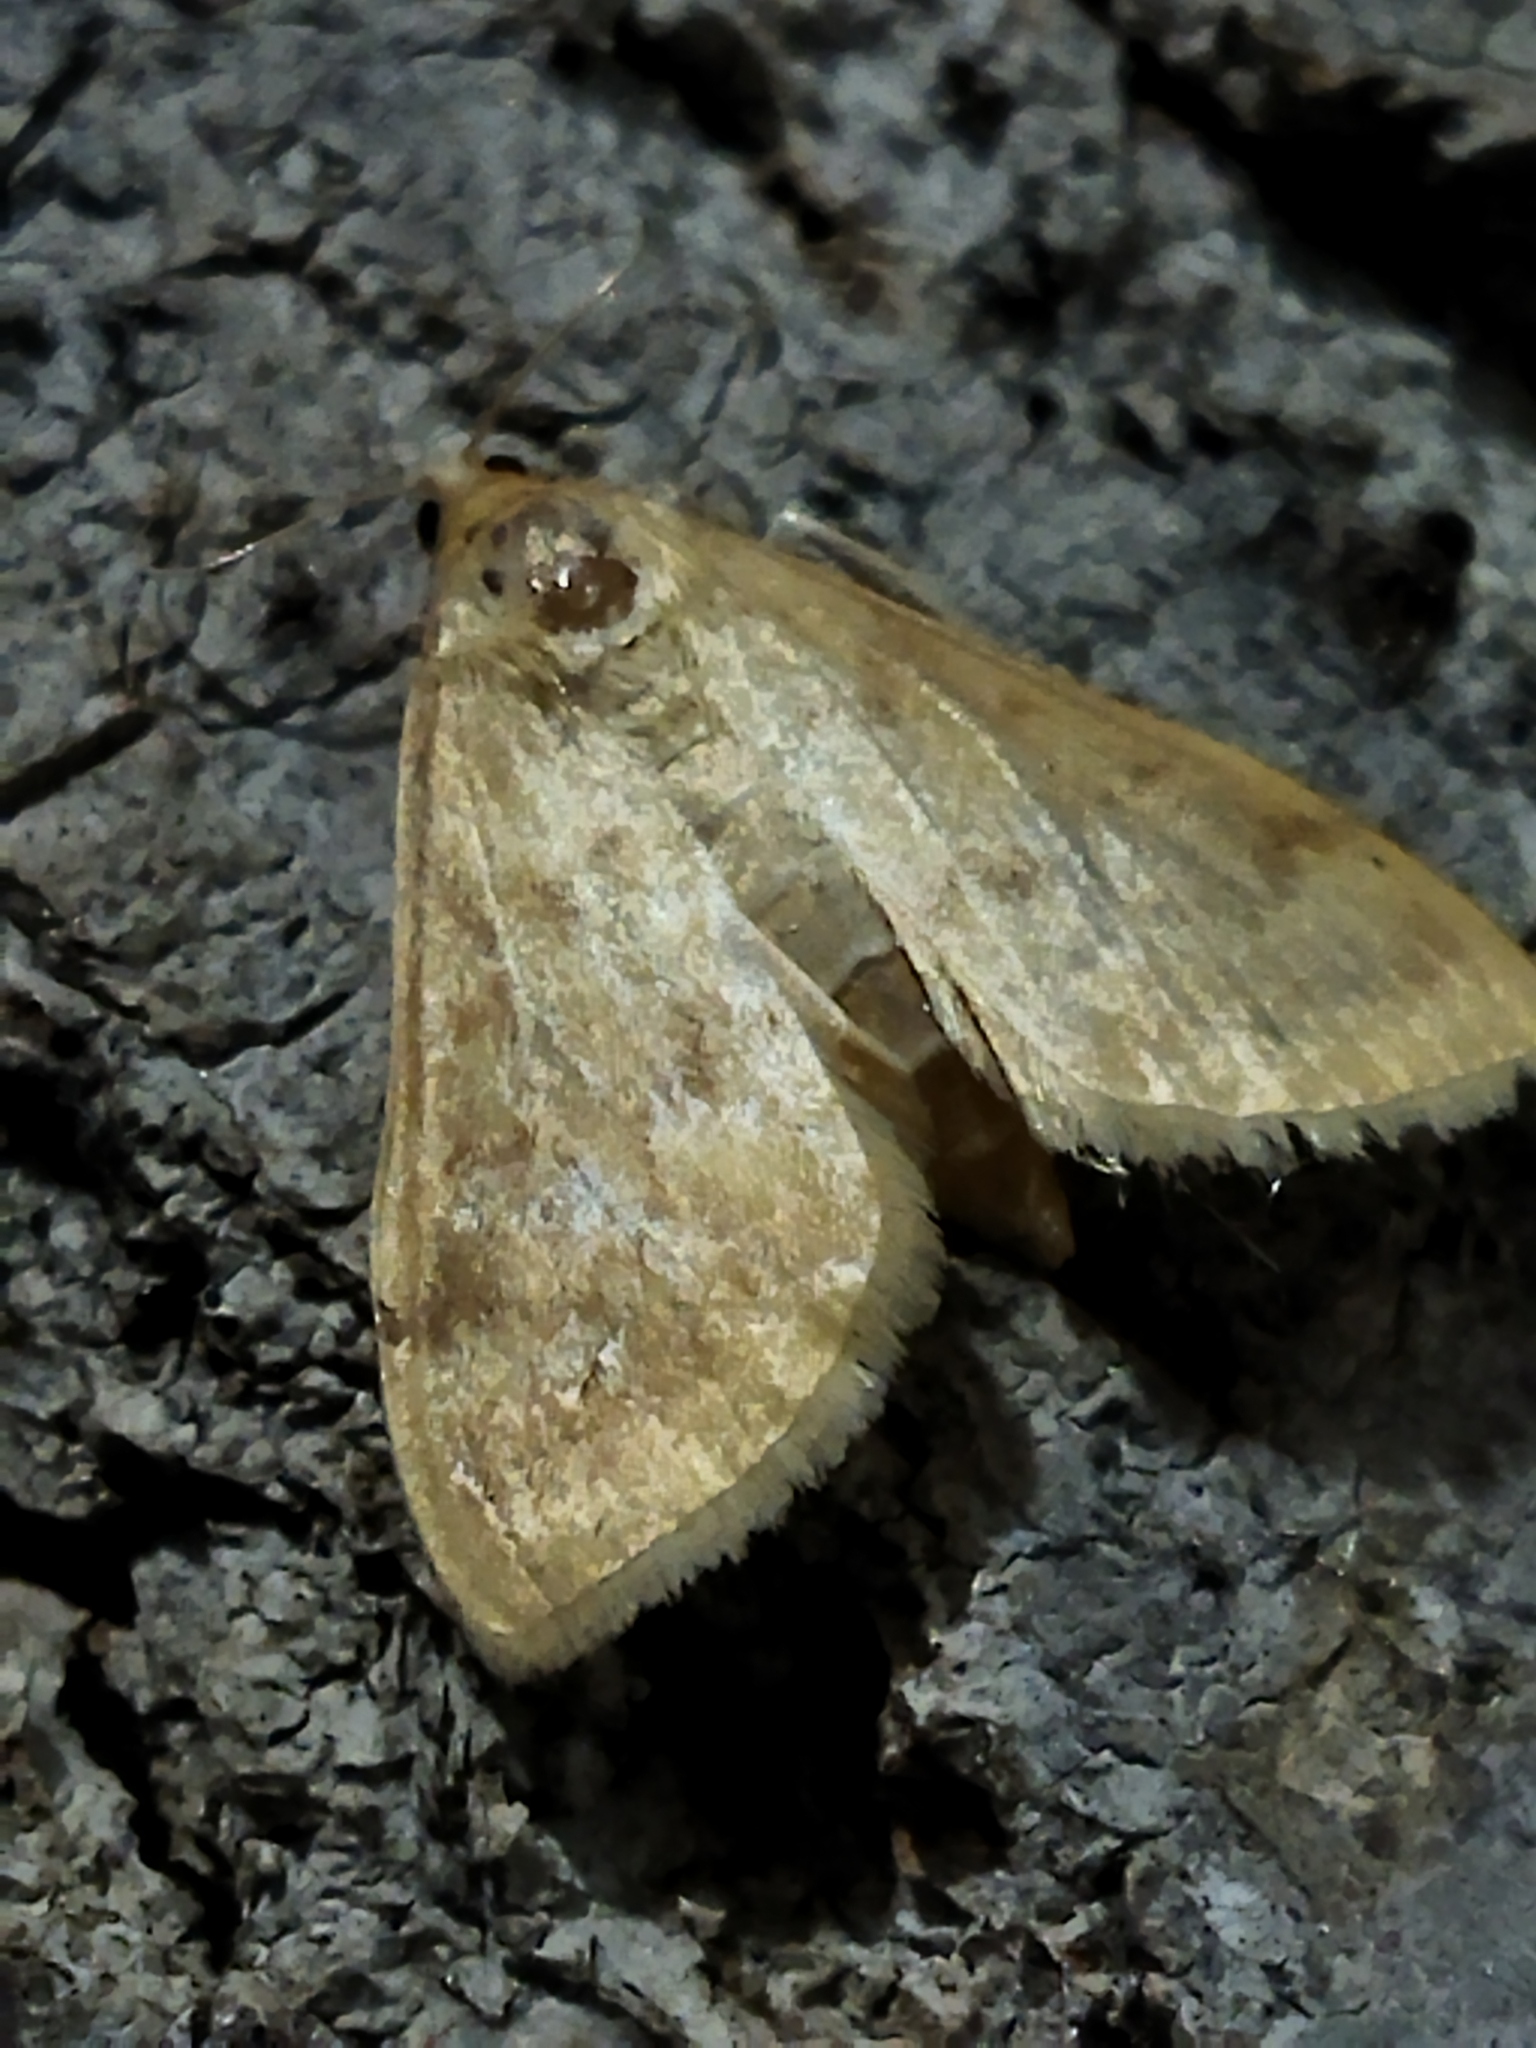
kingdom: Animalia
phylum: Arthropoda
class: Insecta
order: Lepidoptera
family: Crambidae
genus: Ostrinia
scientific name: Ostrinia nubilalis
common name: European corn borer
